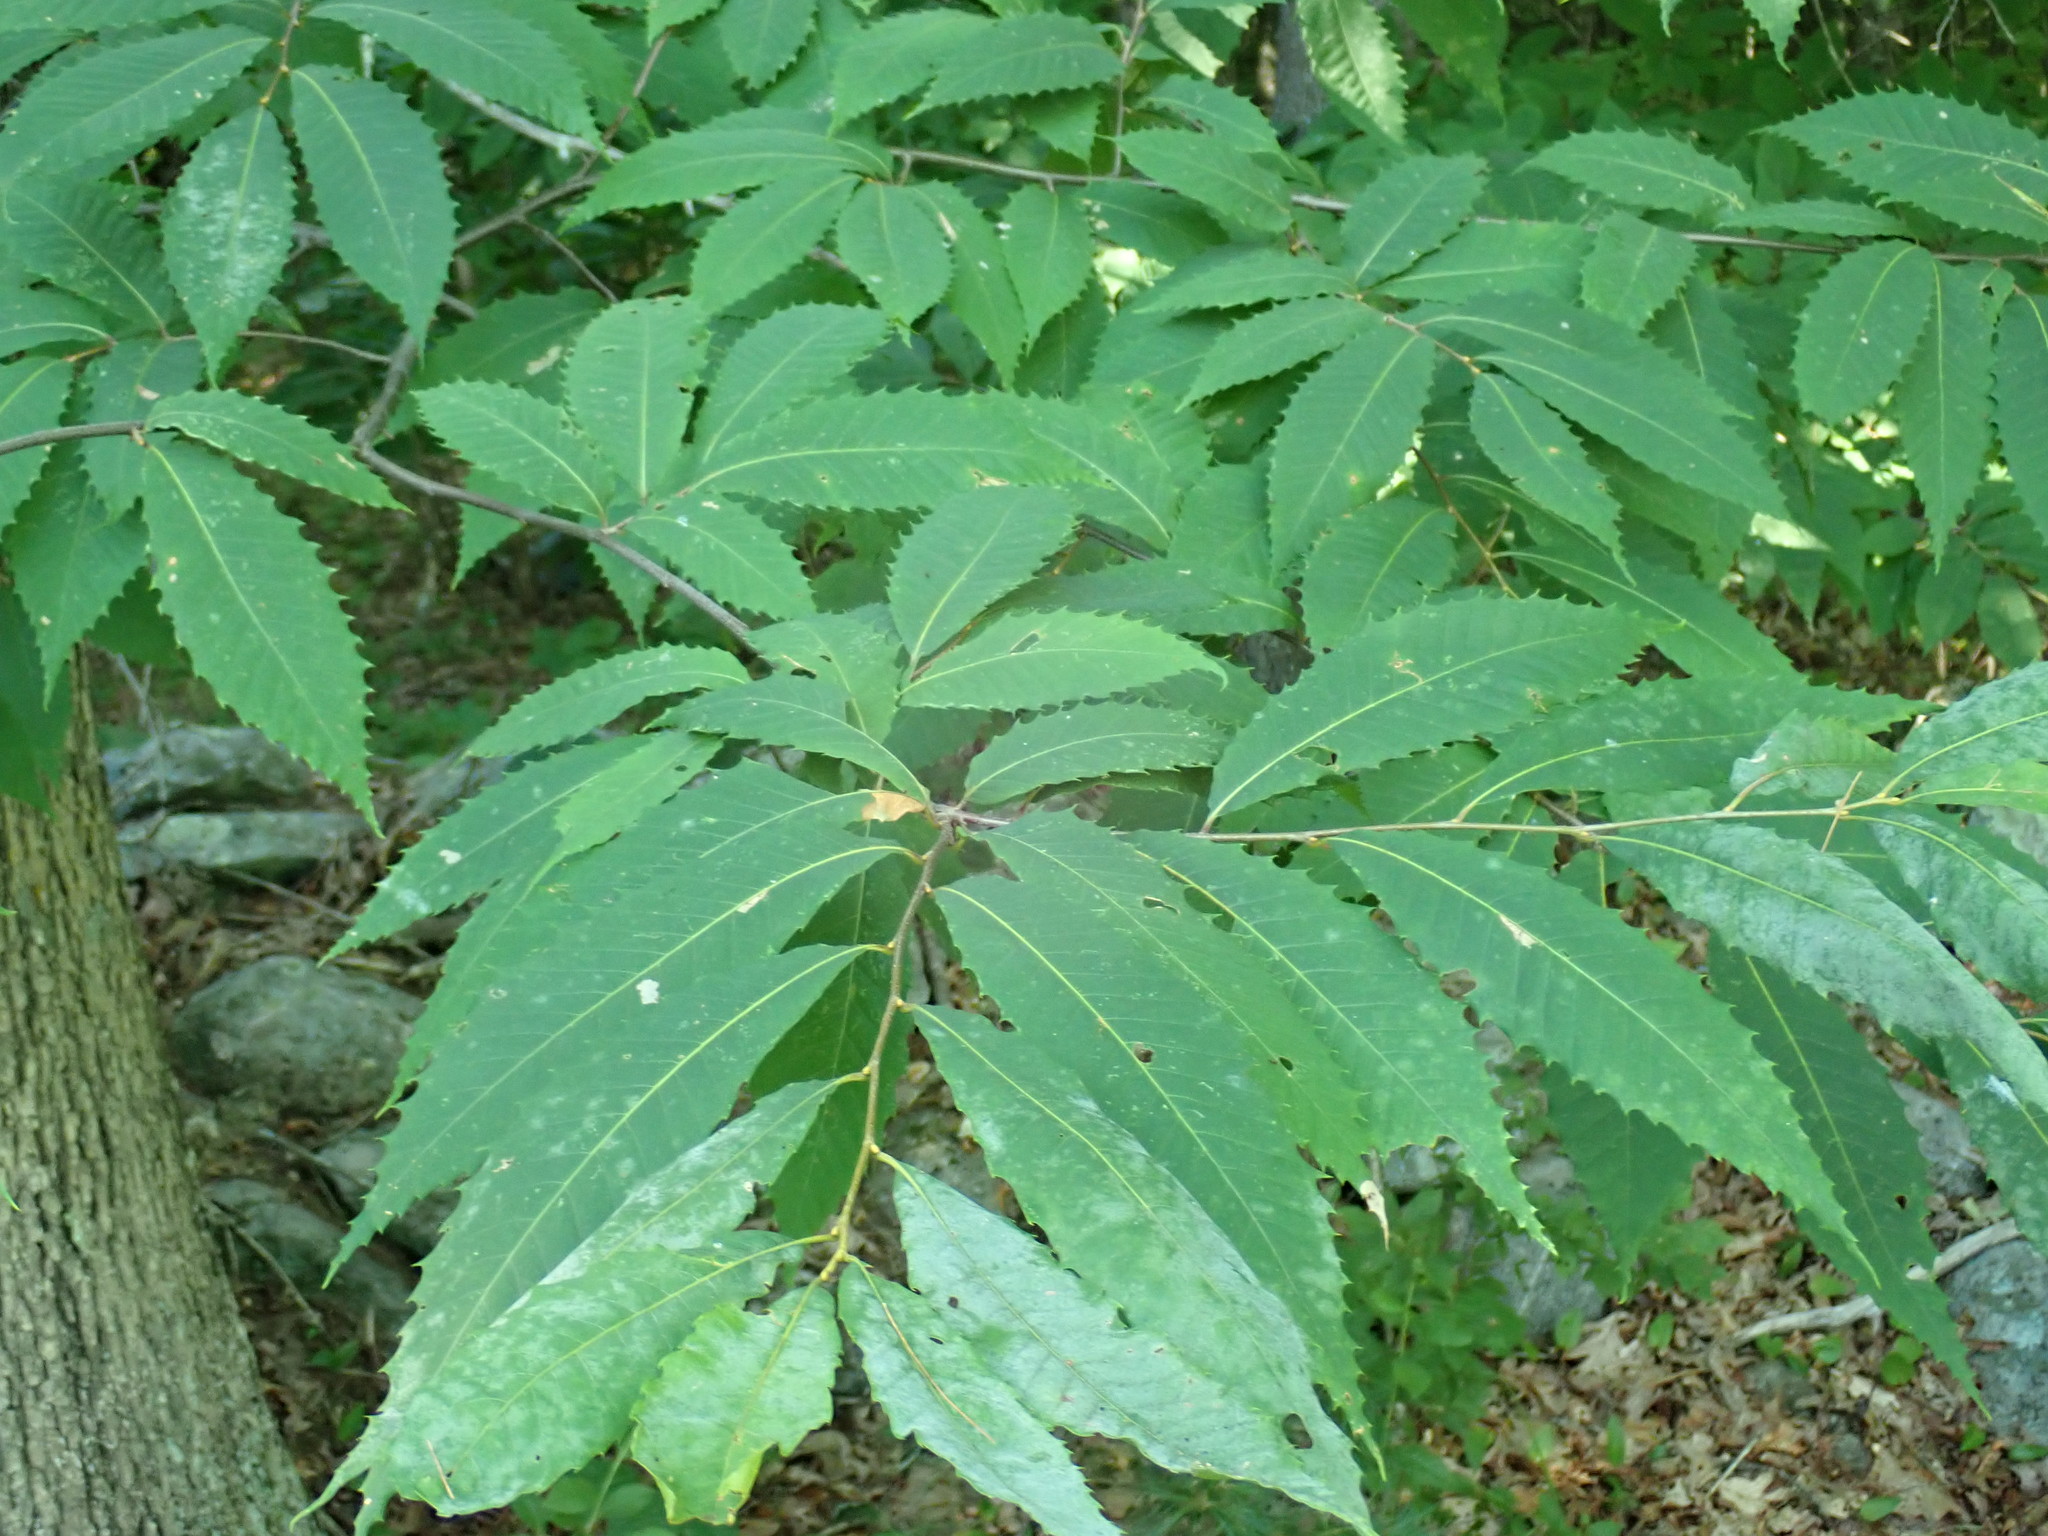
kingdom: Plantae
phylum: Tracheophyta
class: Magnoliopsida
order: Fagales
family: Fagaceae
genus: Castanea
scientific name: Castanea dentata
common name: American chestnut
